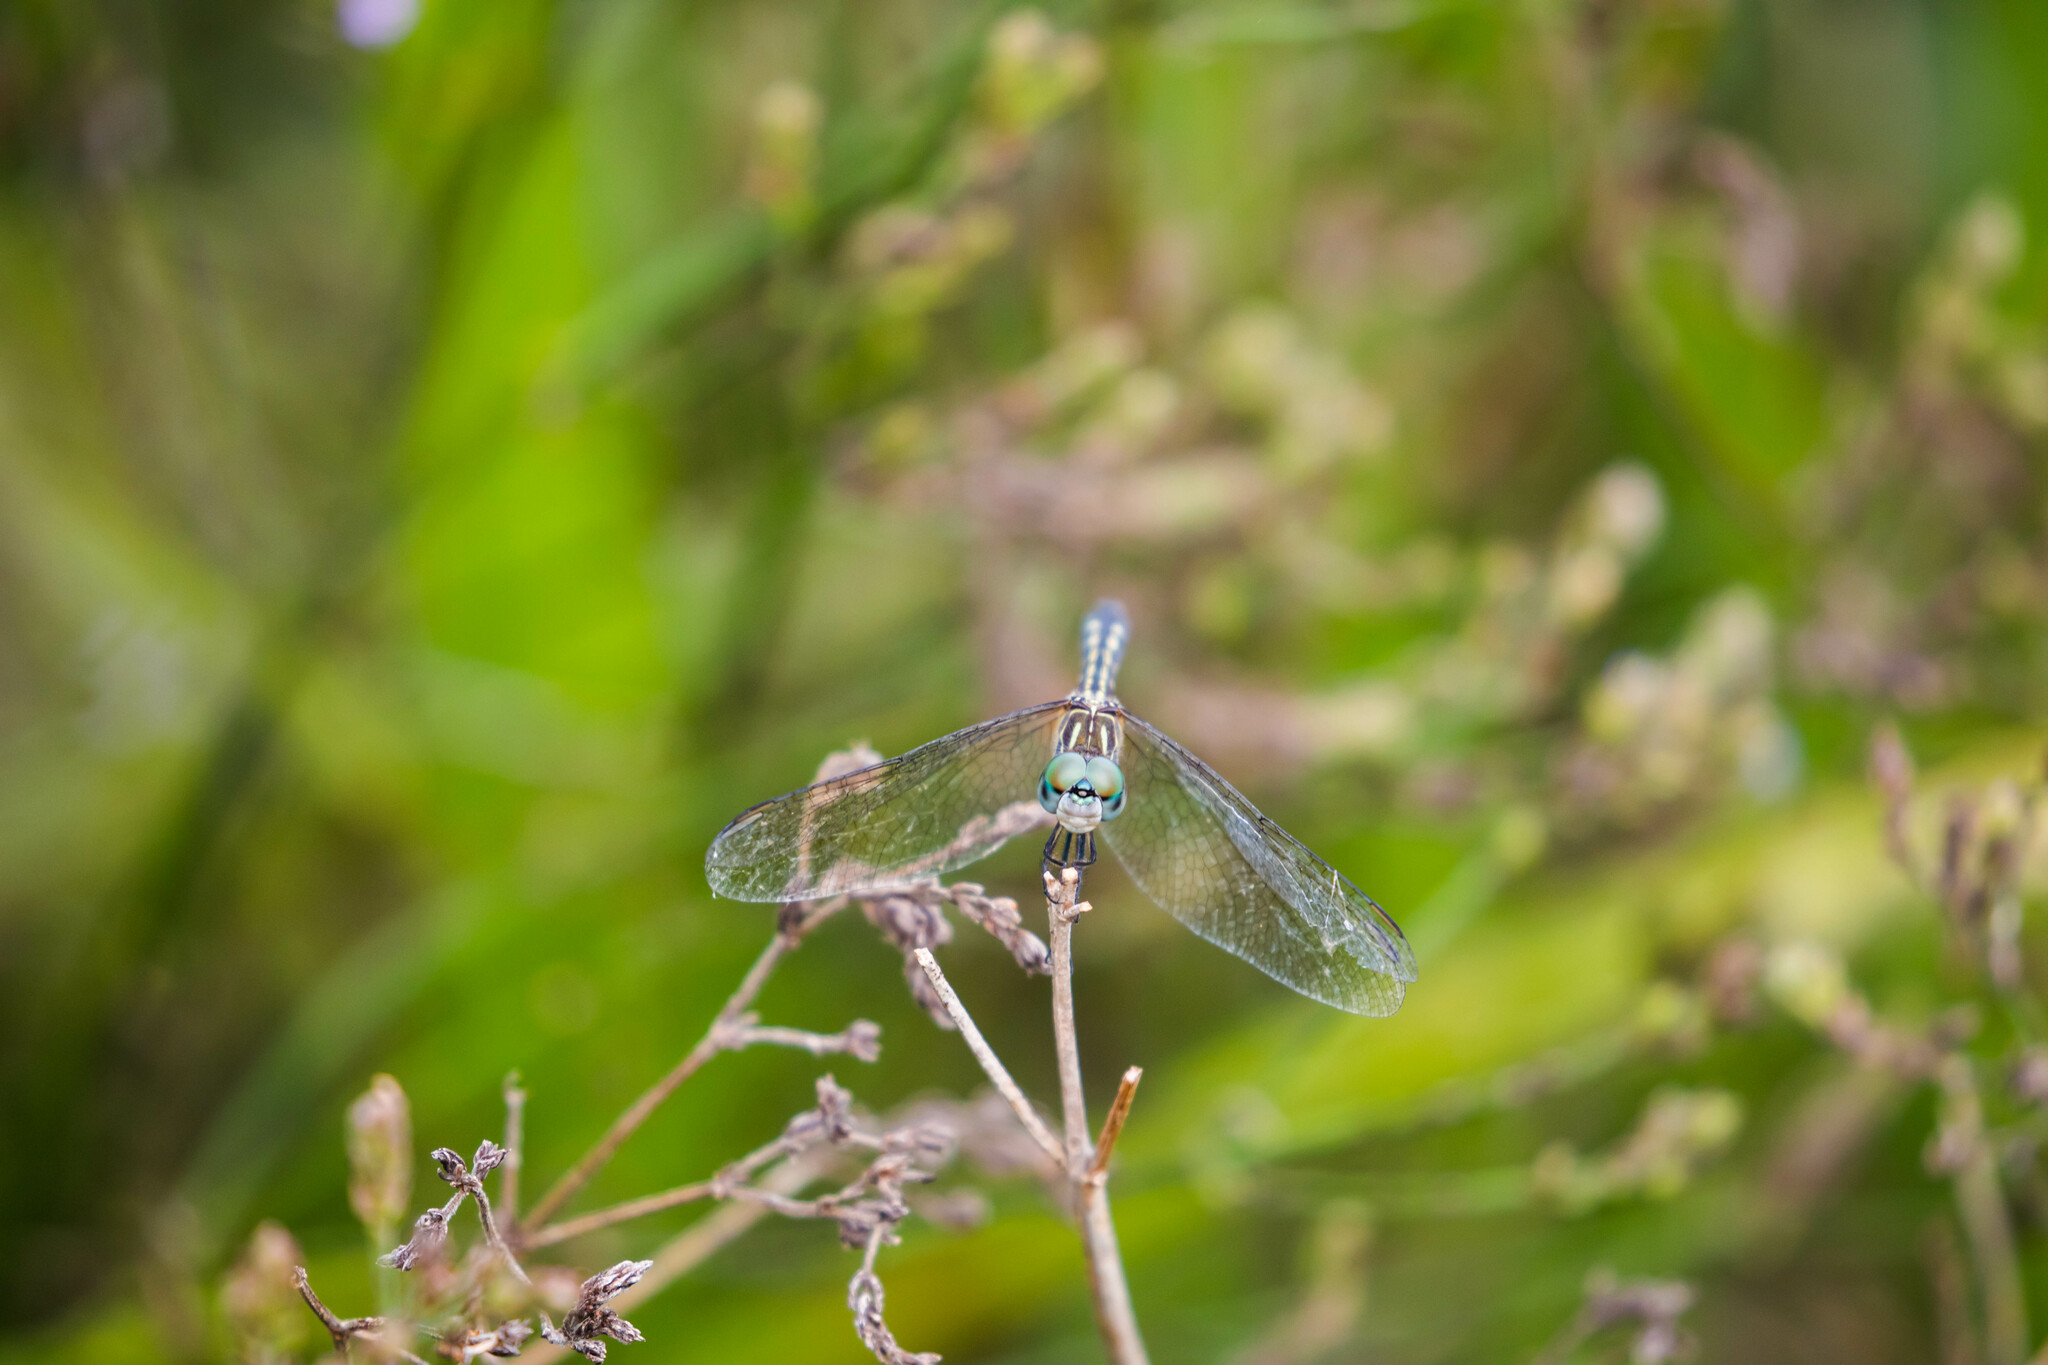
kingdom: Animalia
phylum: Arthropoda
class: Insecta
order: Odonata
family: Libellulidae
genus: Pachydiplax
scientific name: Pachydiplax longipennis
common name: Blue dasher
